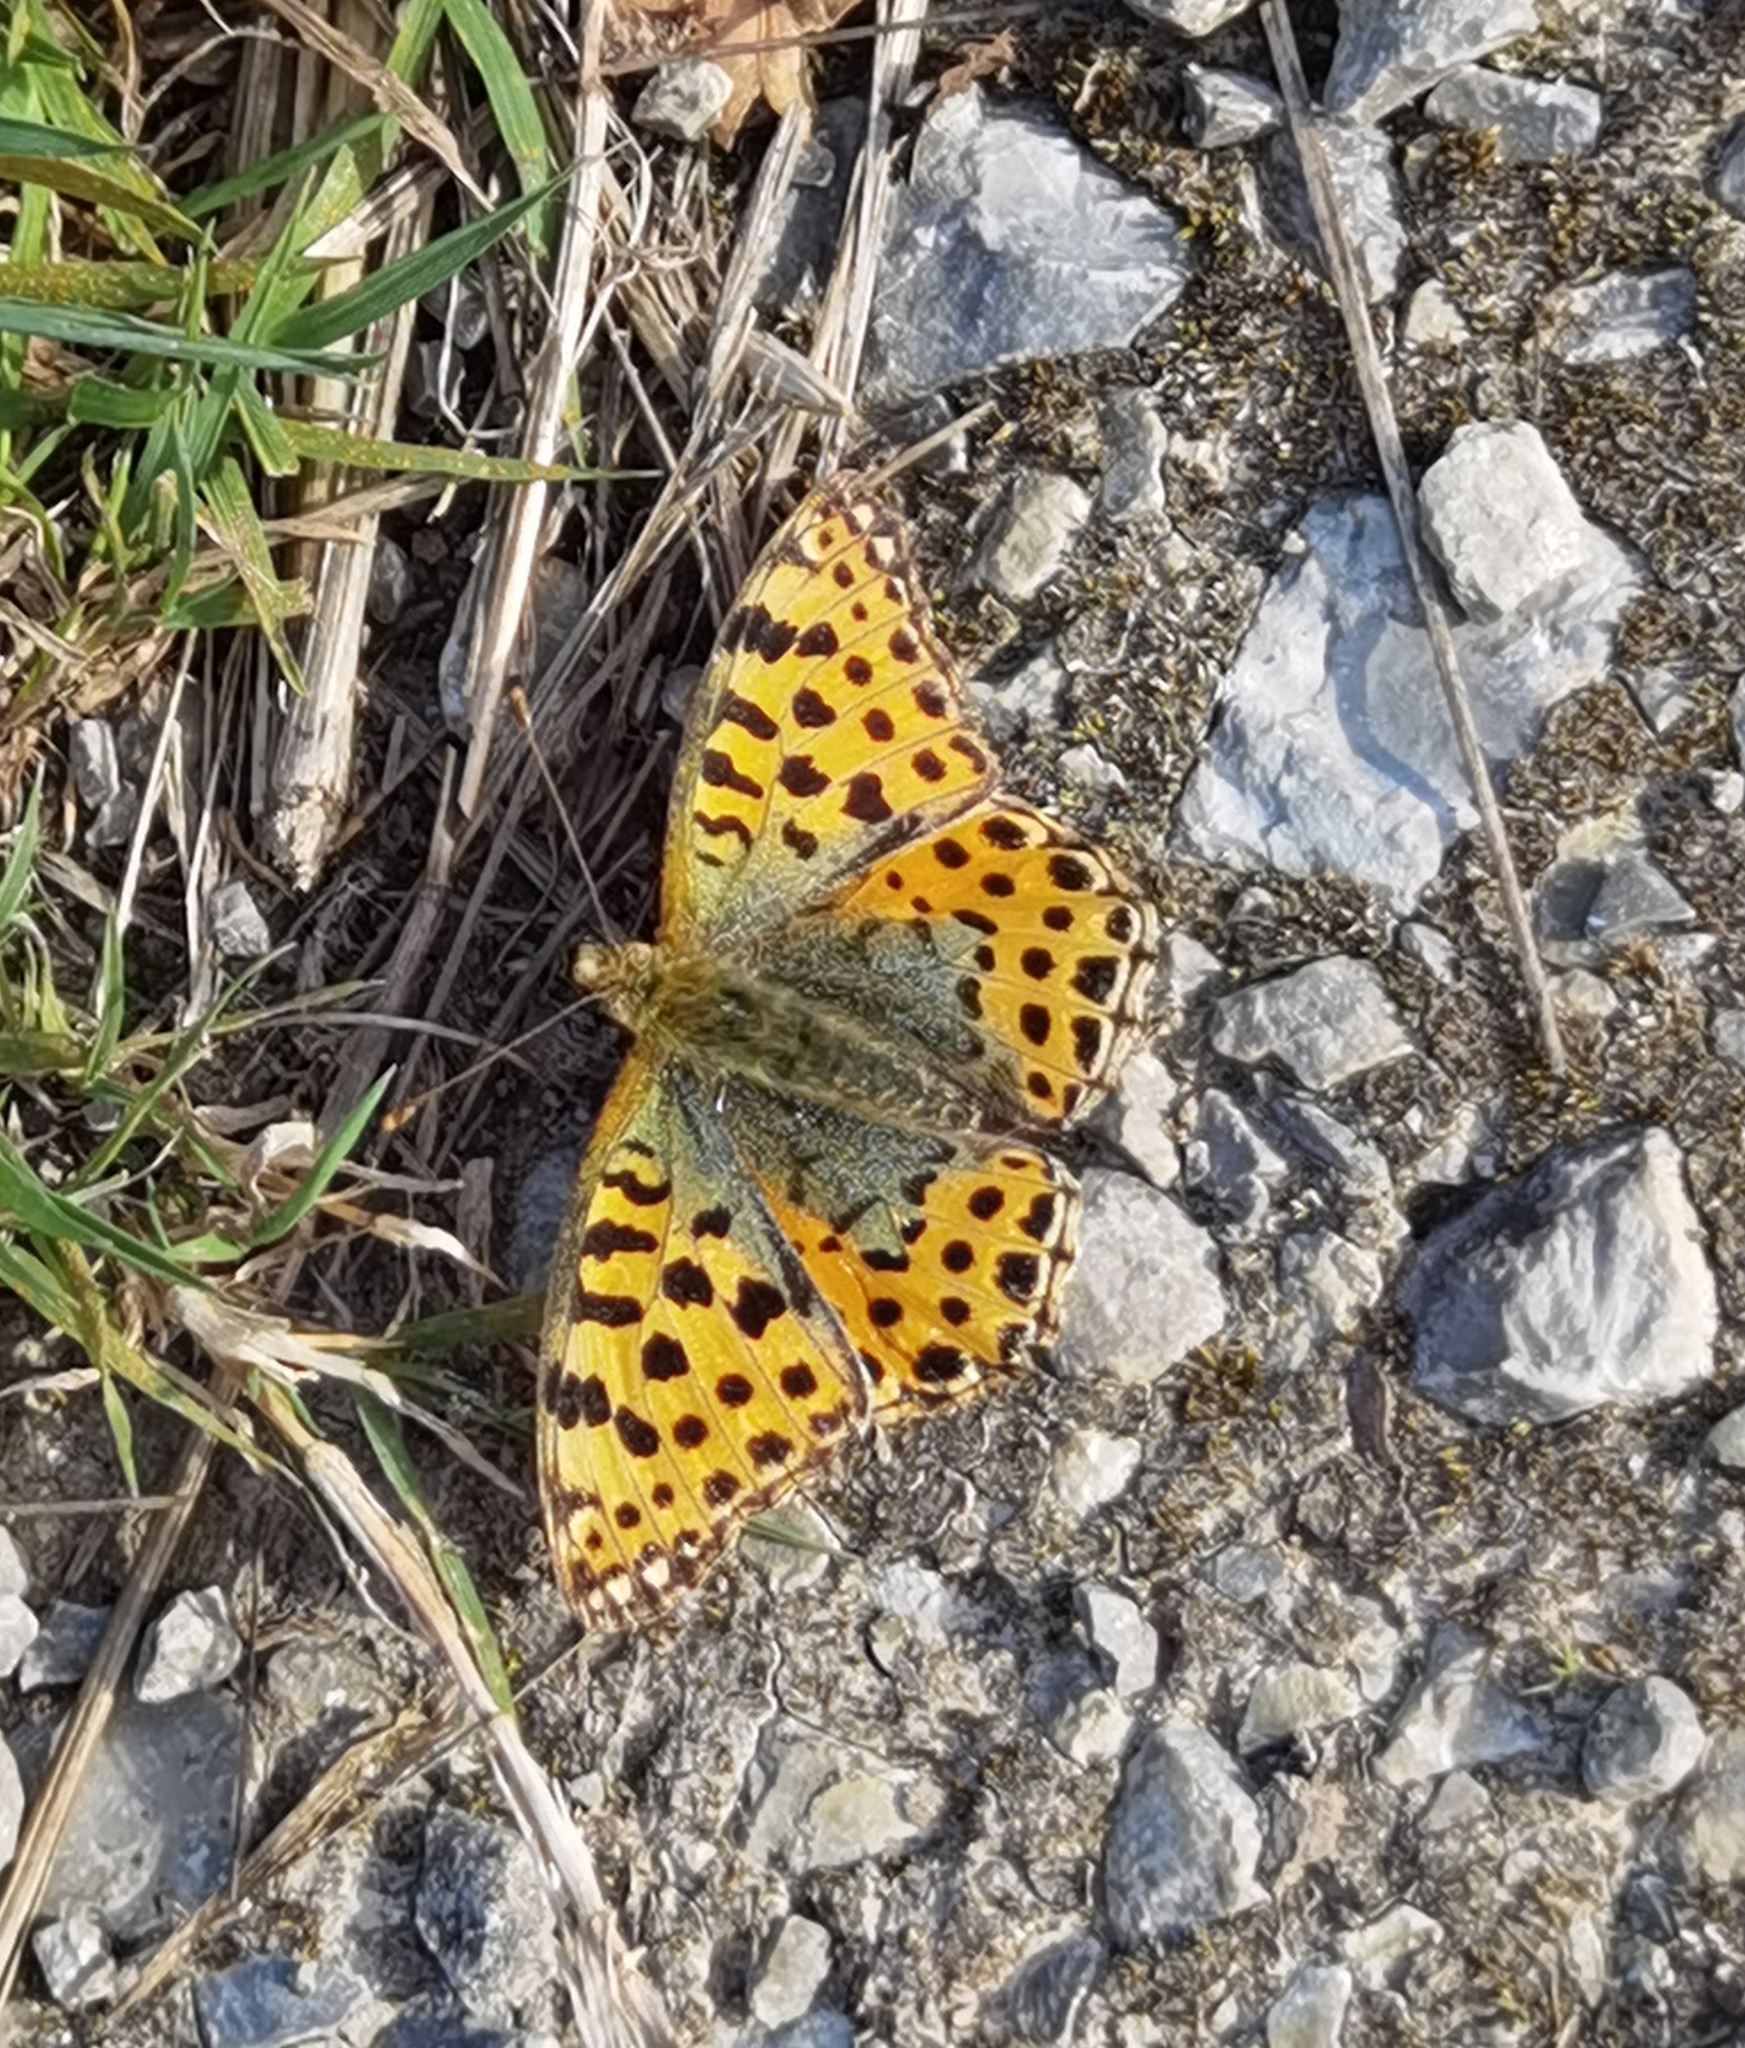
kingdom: Animalia
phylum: Arthropoda
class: Insecta
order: Lepidoptera
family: Nymphalidae
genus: Issoria
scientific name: Issoria lathonia
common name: Queen of spain fritillary
